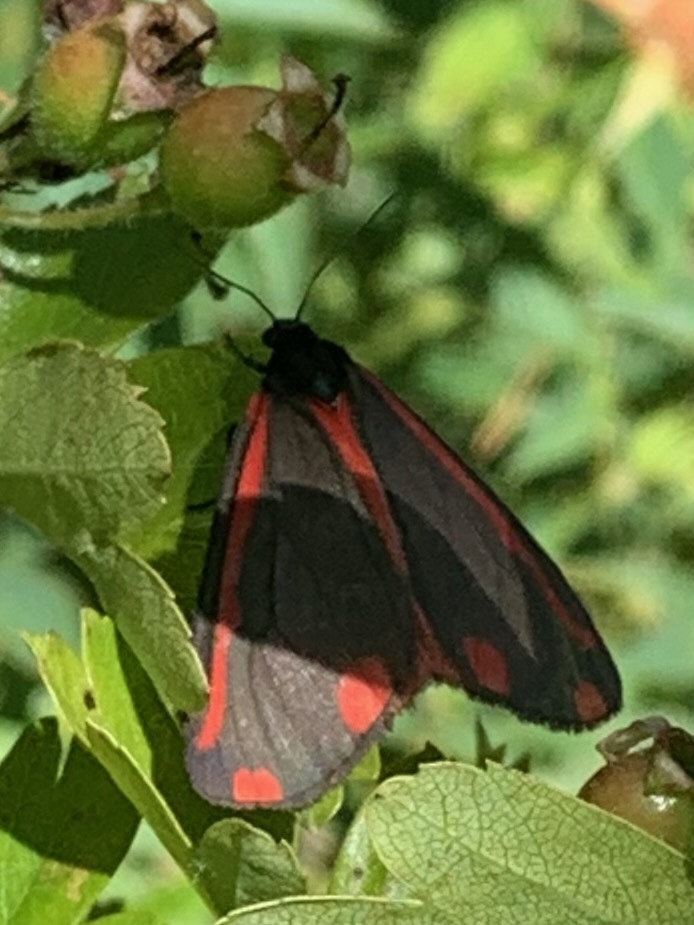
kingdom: Animalia
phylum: Arthropoda
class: Insecta
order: Lepidoptera
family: Erebidae
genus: Tyria
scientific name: Tyria jacobaeae
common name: Cinnabar
